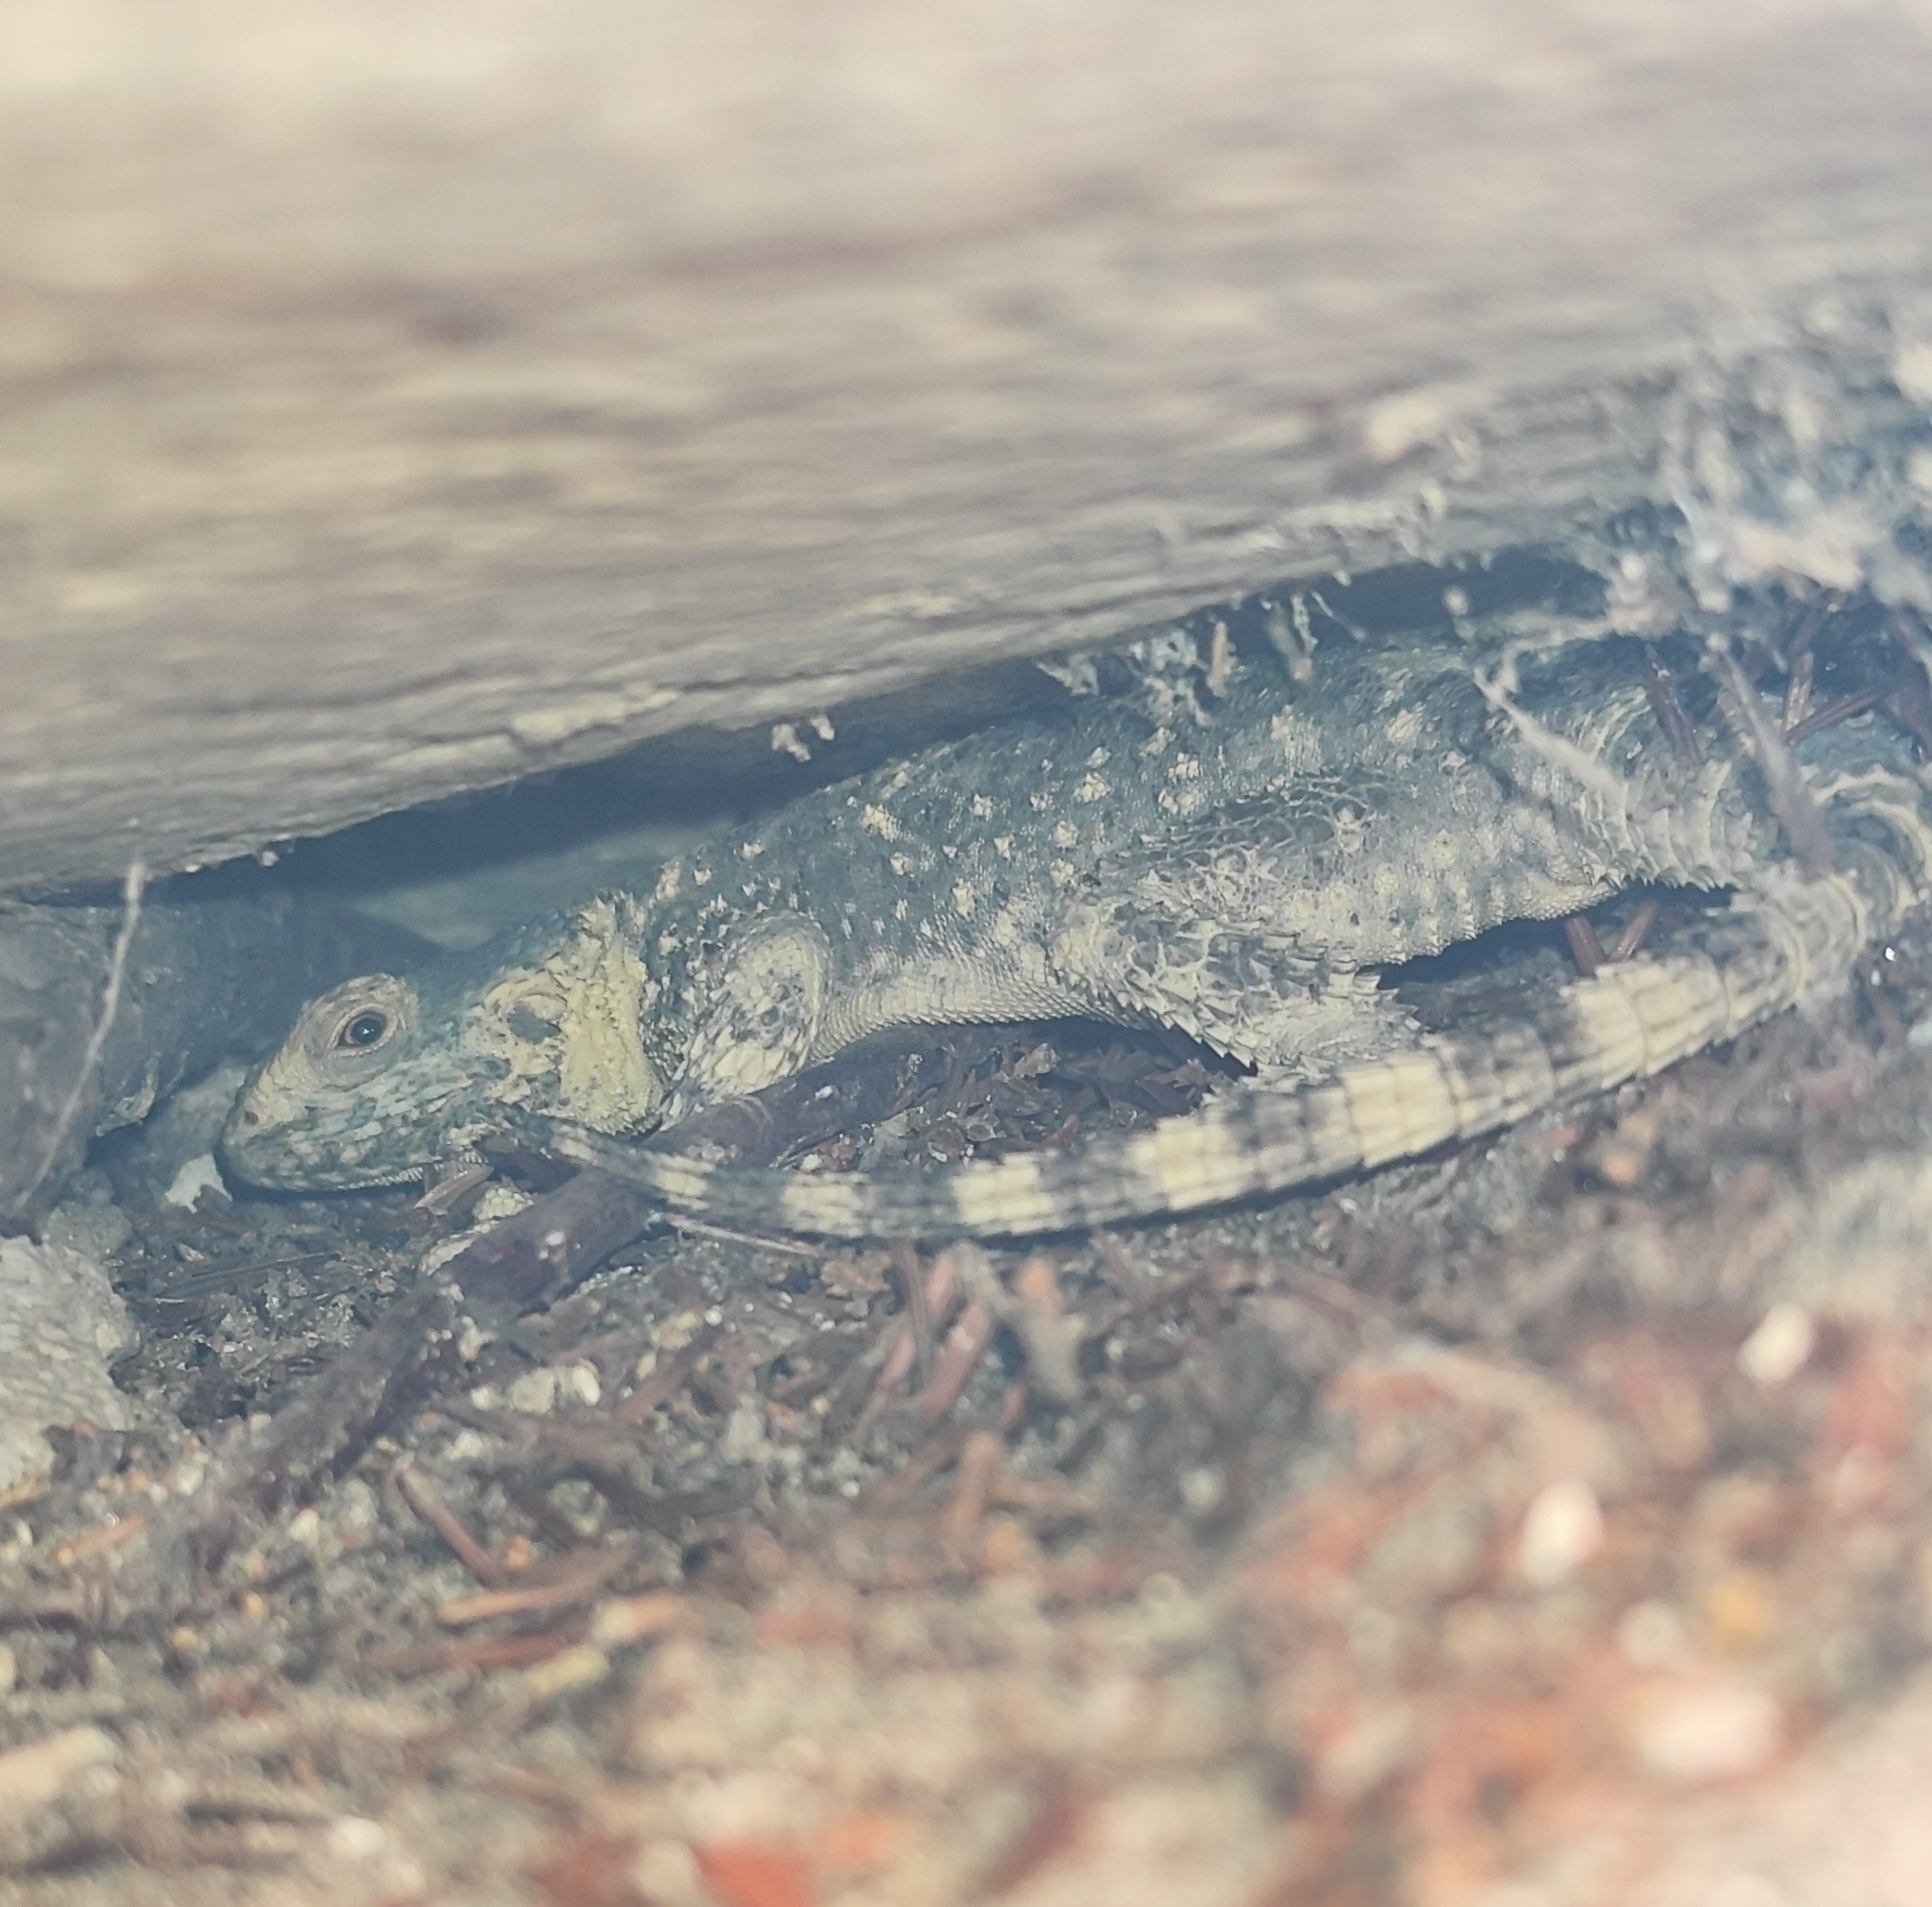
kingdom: Animalia
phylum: Chordata
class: Squamata
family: Agamidae
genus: Stellagama
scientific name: Stellagama stellio
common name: Starred agama
